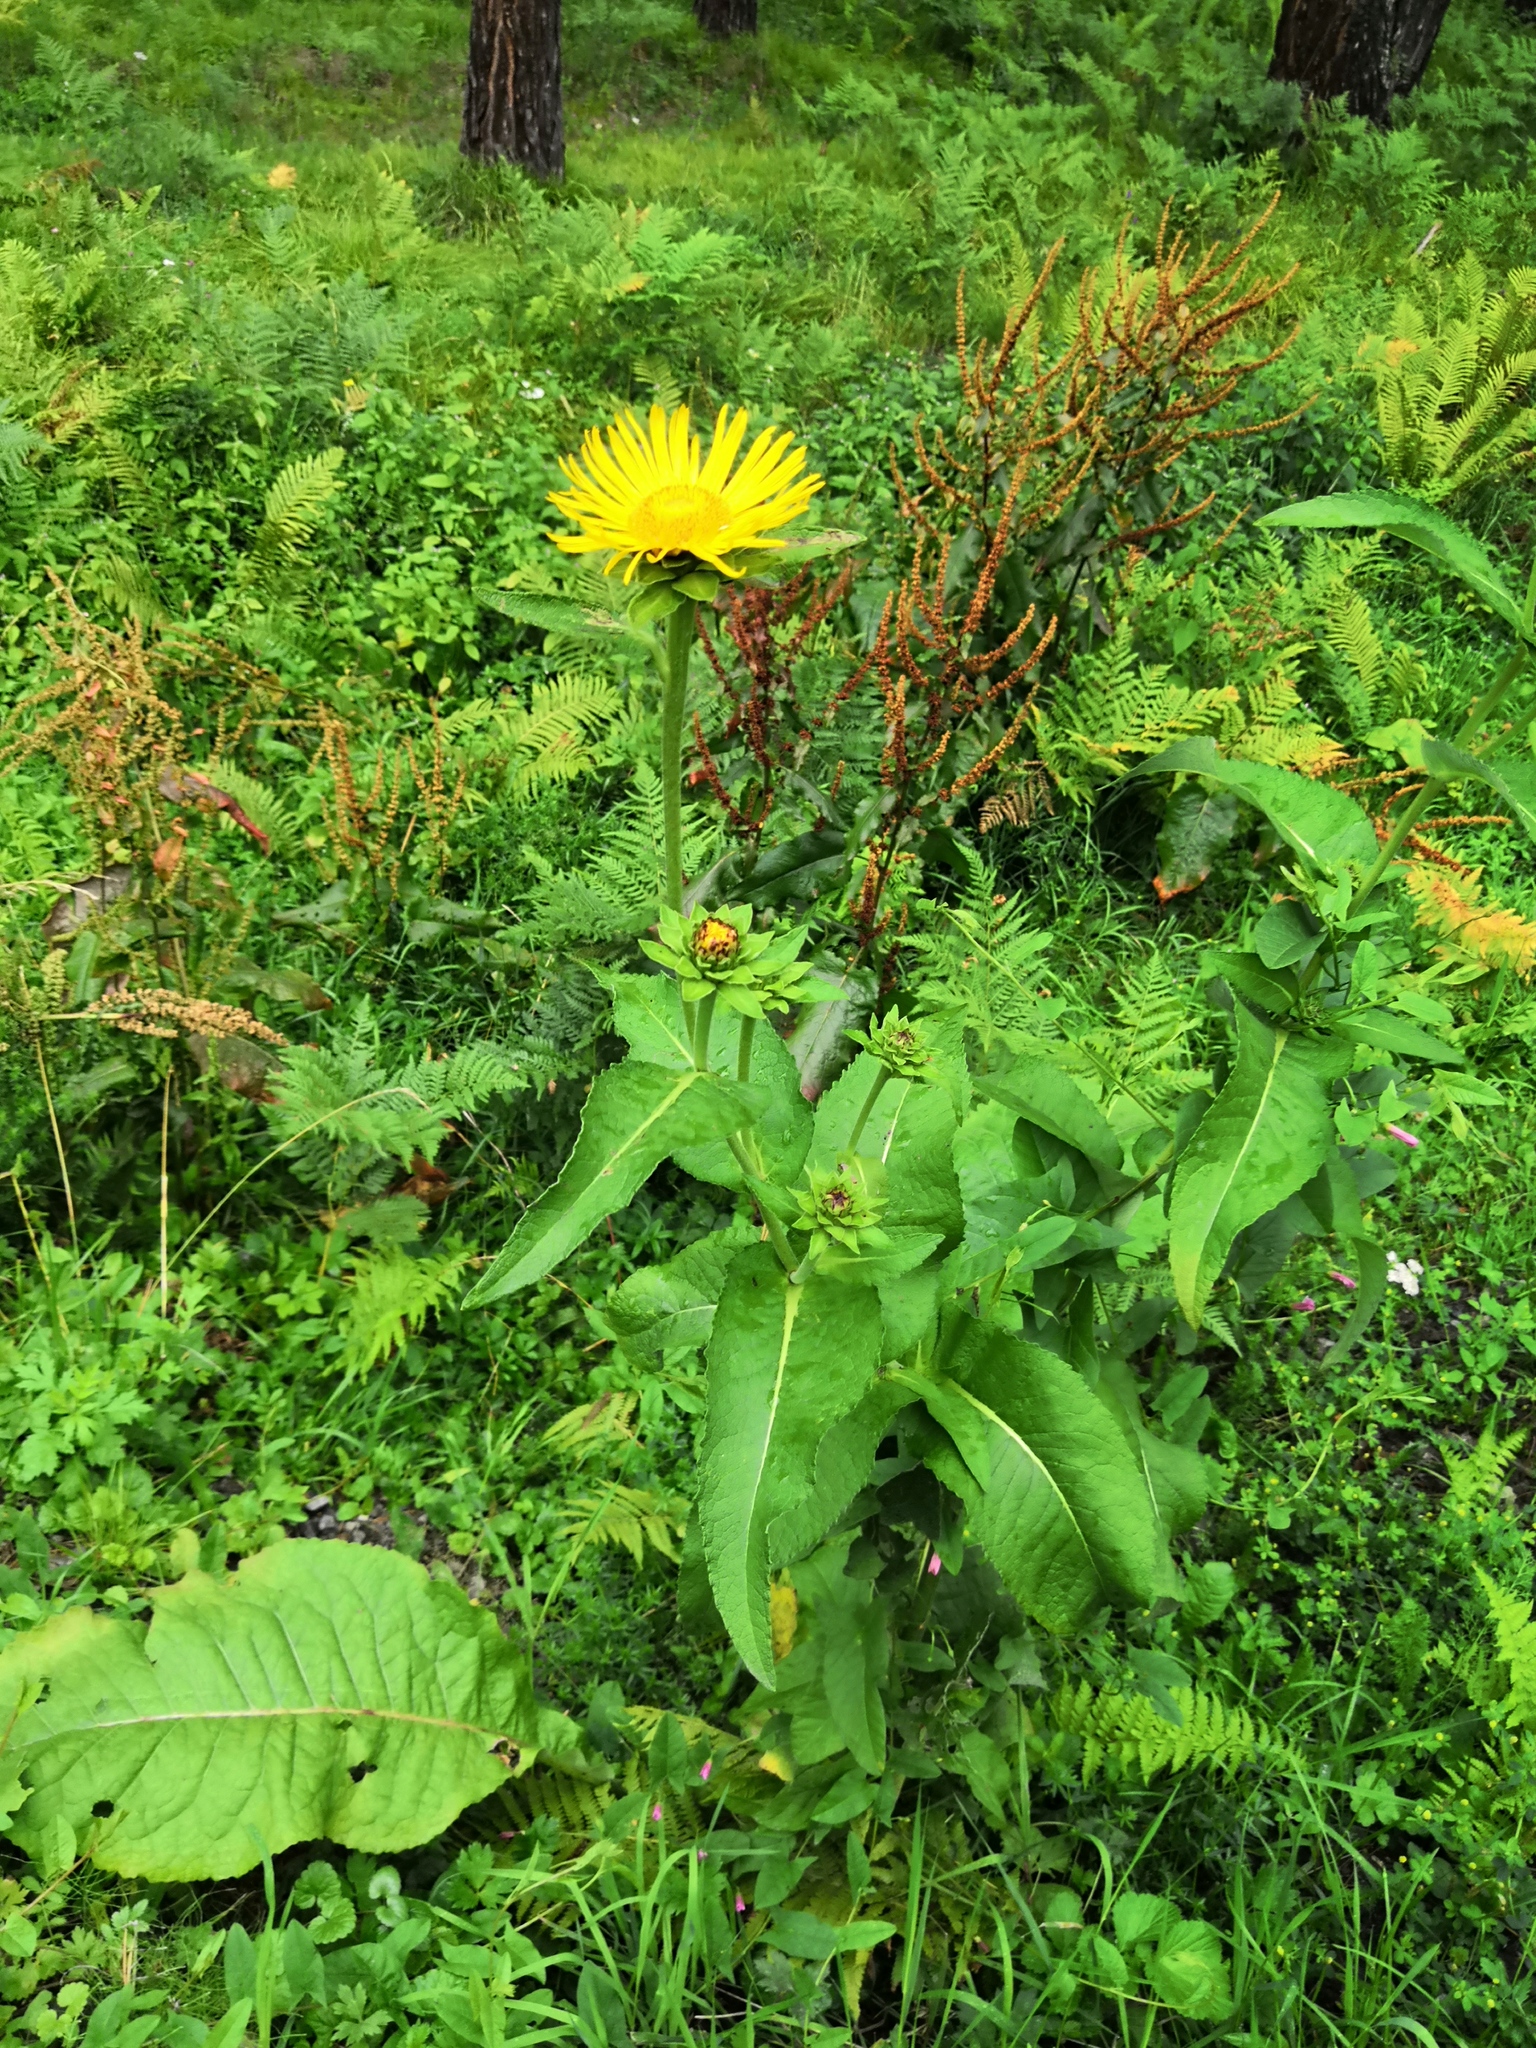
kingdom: Plantae
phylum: Tracheophyta
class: Magnoliopsida
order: Asterales
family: Asteraceae
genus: Inula
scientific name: Inula helenium
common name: Elecampane
